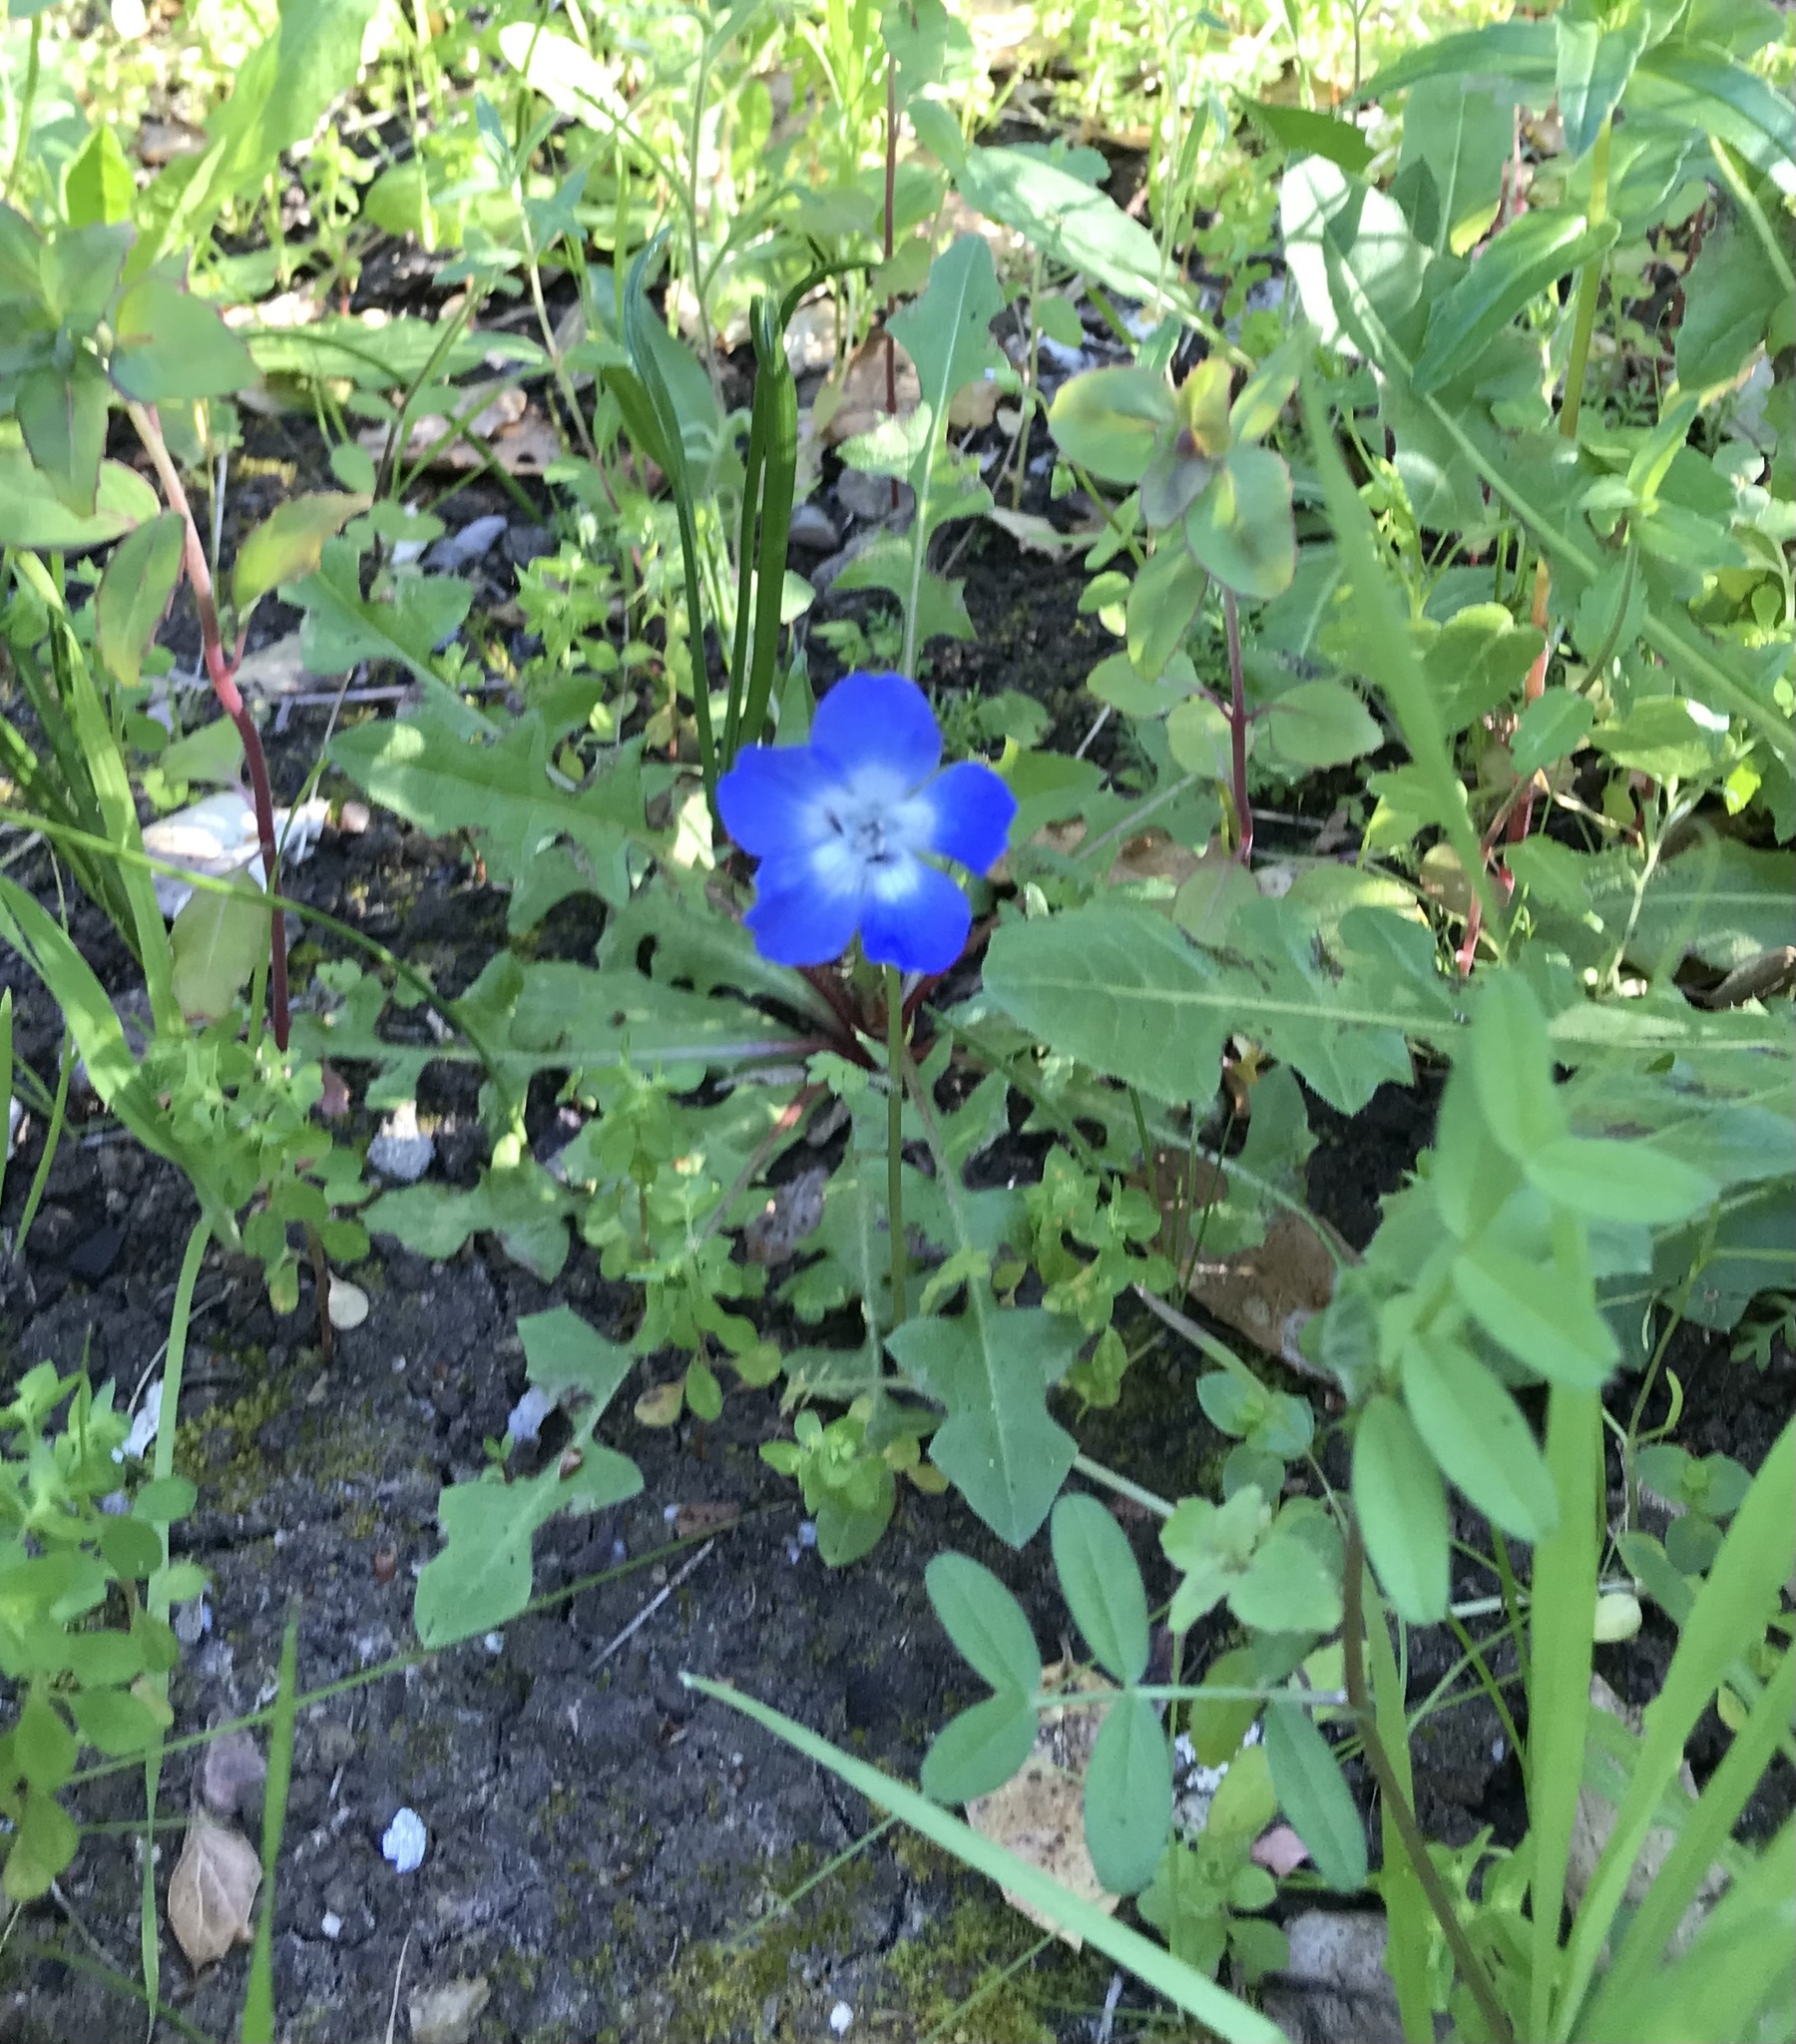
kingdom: Plantae
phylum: Tracheophyta
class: Magnoliopsida
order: Boraginales
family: Hydrophyllaceae
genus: Nemophila
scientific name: Nemophila menziesii
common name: Baby's-blue-eyes
